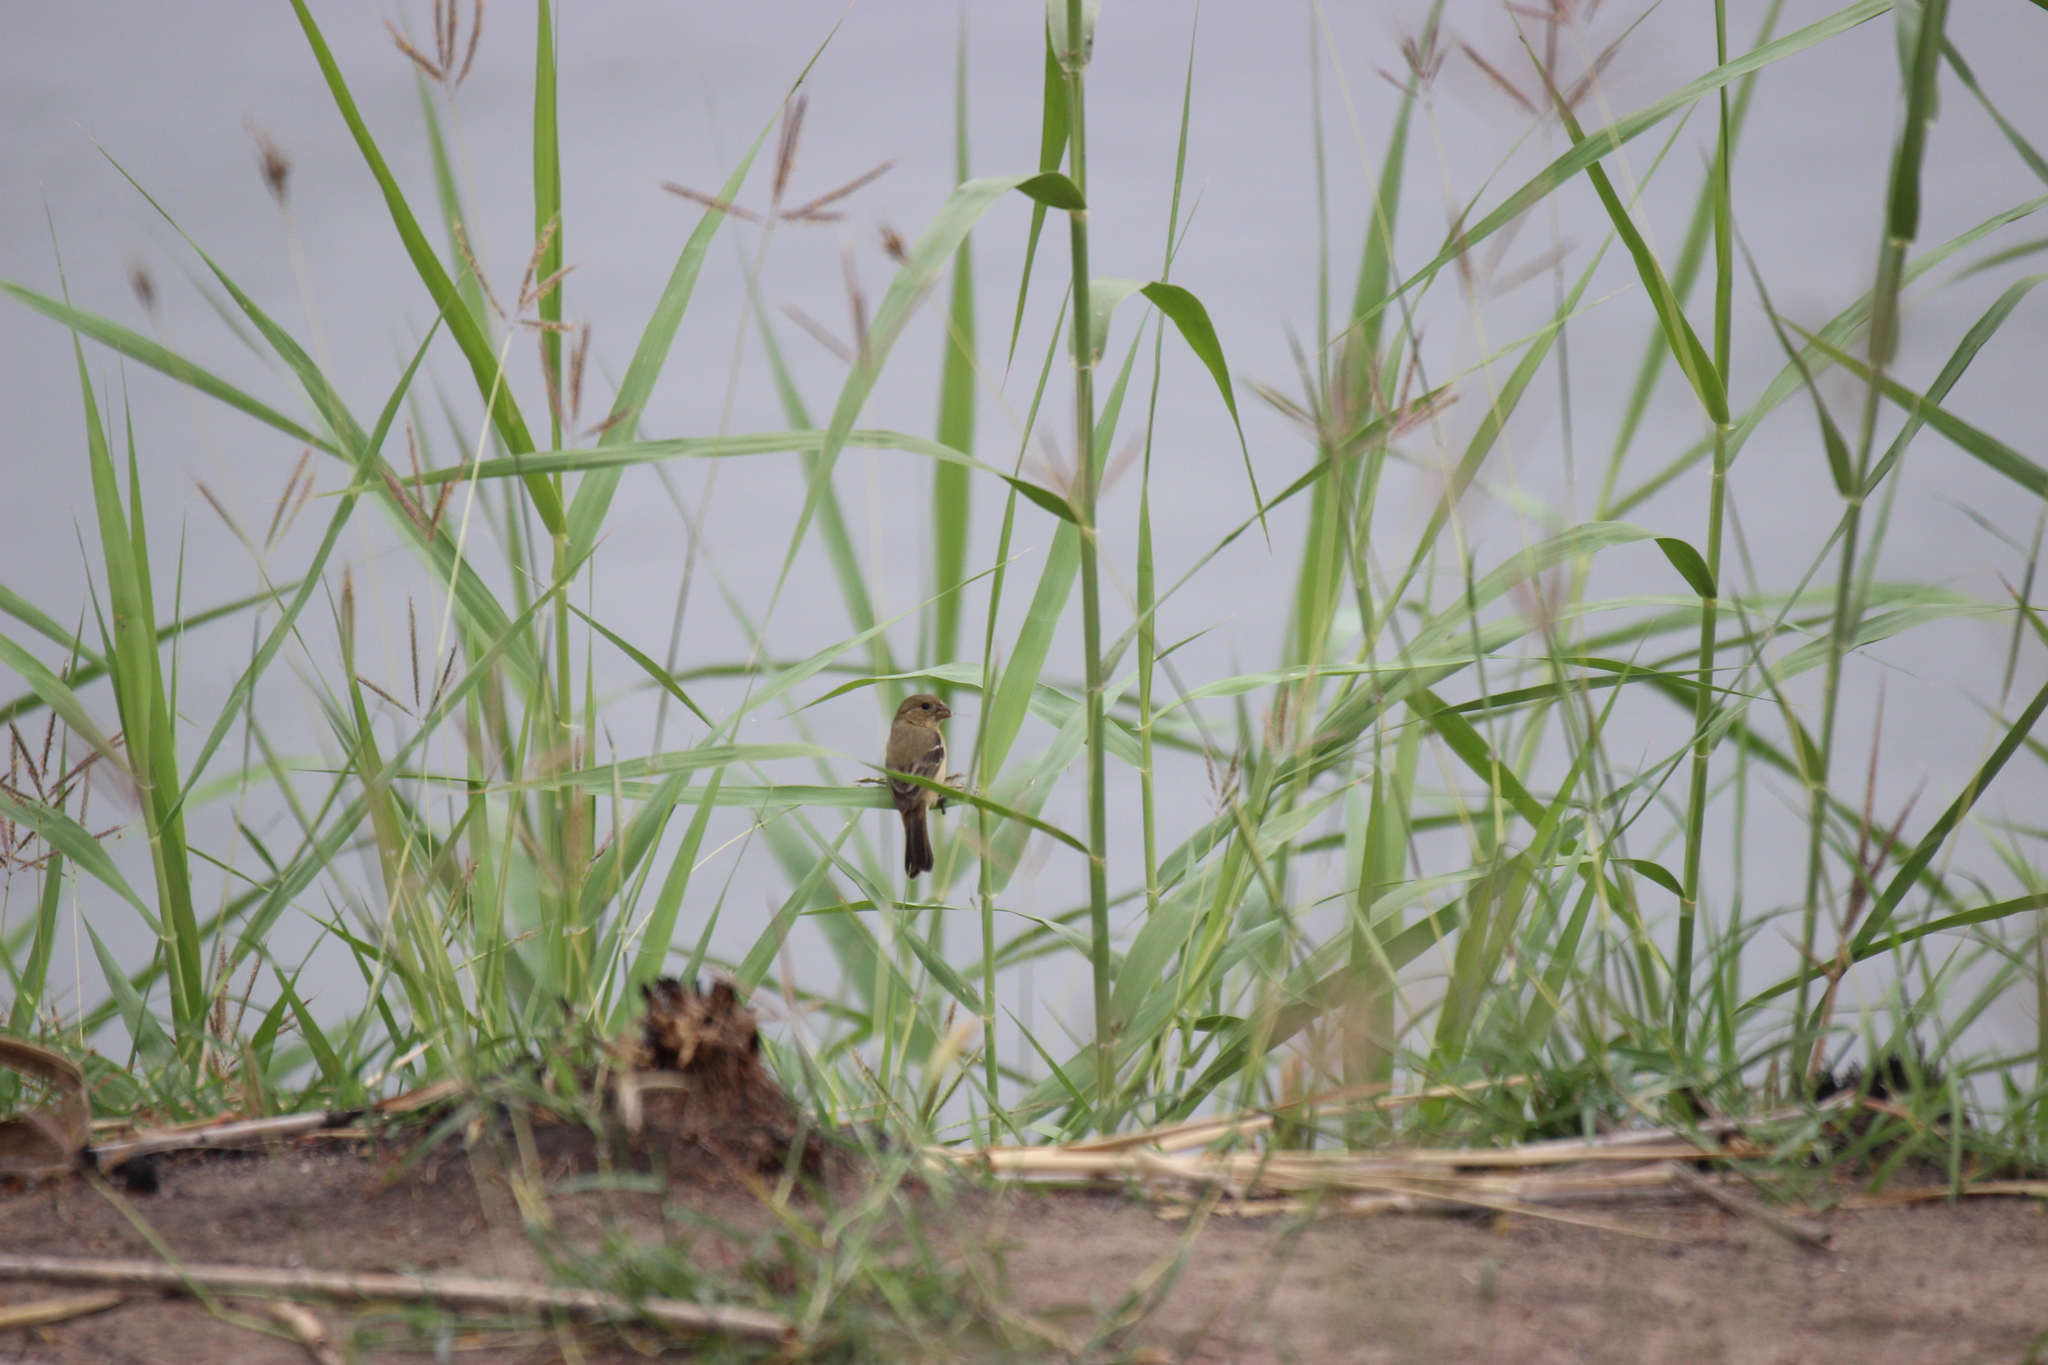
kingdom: Animalia
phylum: Chordata
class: Aves
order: Passeriformes
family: Thraupidae
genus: Sporophila
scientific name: Sporophila morelleti
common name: Morelet's seedeater
